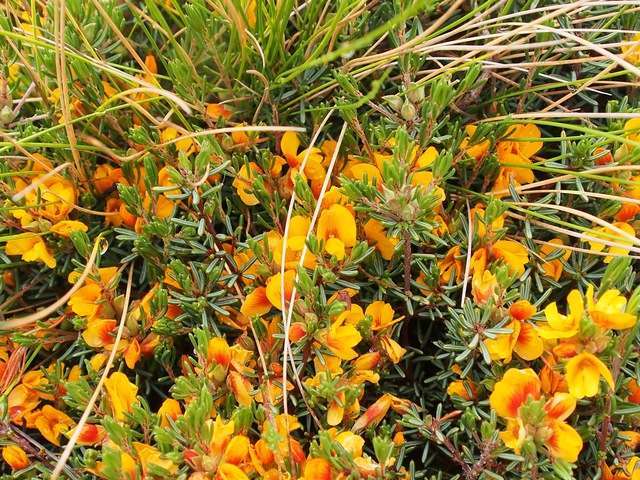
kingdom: Plantae
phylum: Tracheophyta
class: Magnoliopsida
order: Fabales
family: Fabaceae
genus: Pultenaea
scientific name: Pultenaea fasciculata
